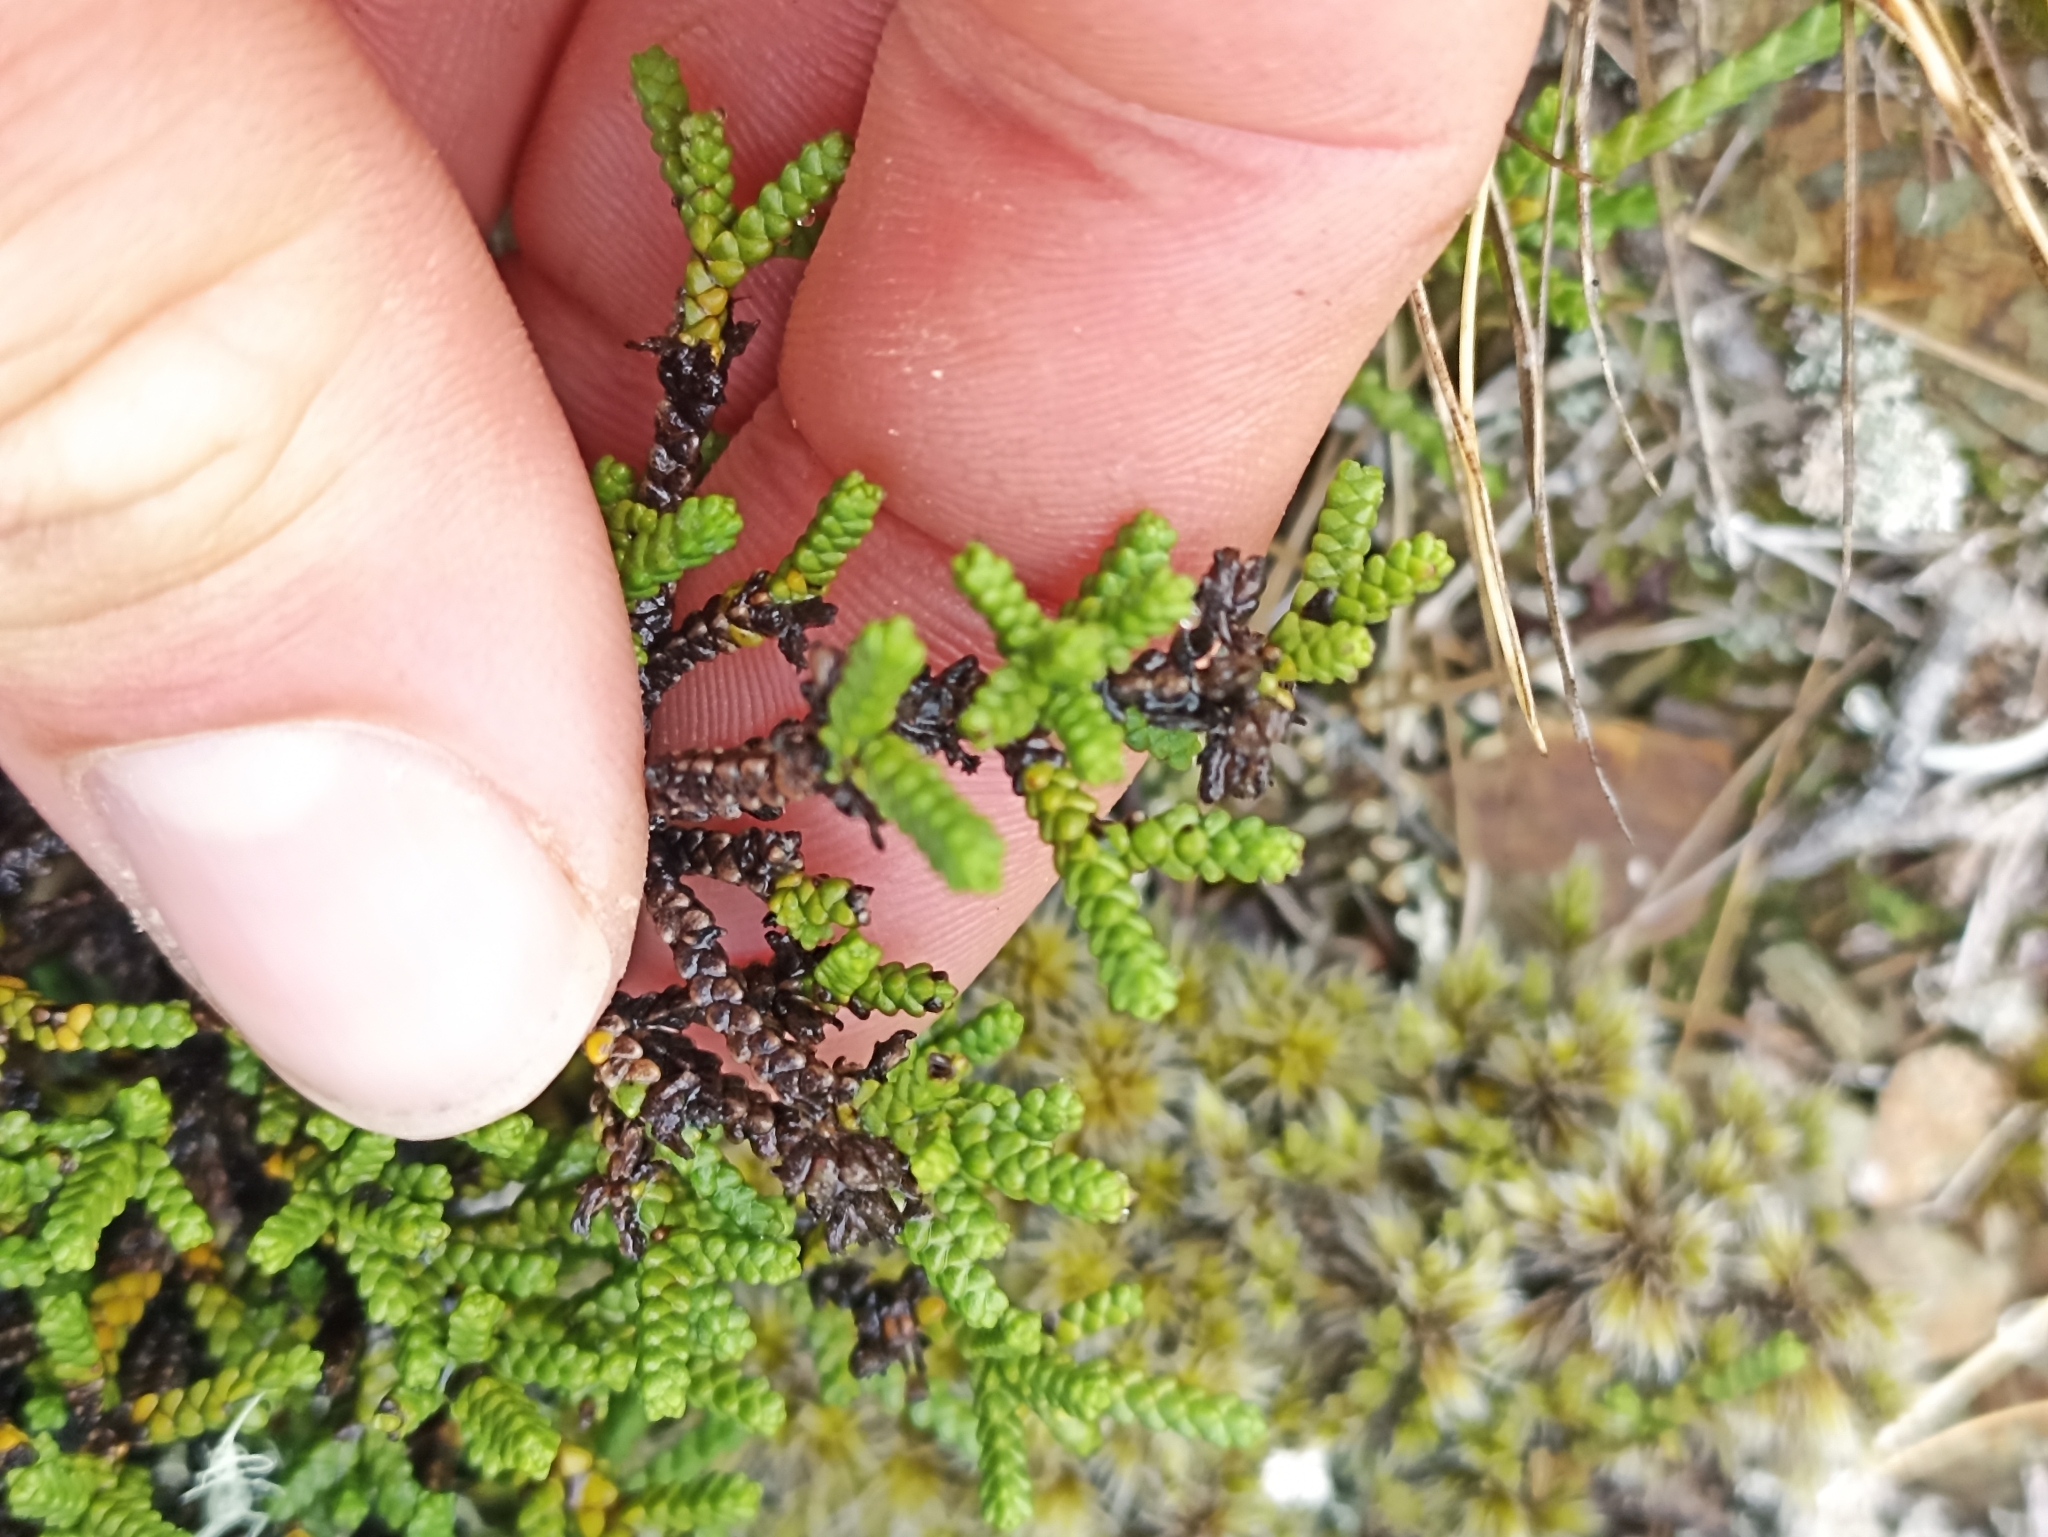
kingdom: Plantae
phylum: Tracheophyta
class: Magnoliopsida
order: Lamiales
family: Plantaginaceae
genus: Veronica
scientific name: Veronica tumida
